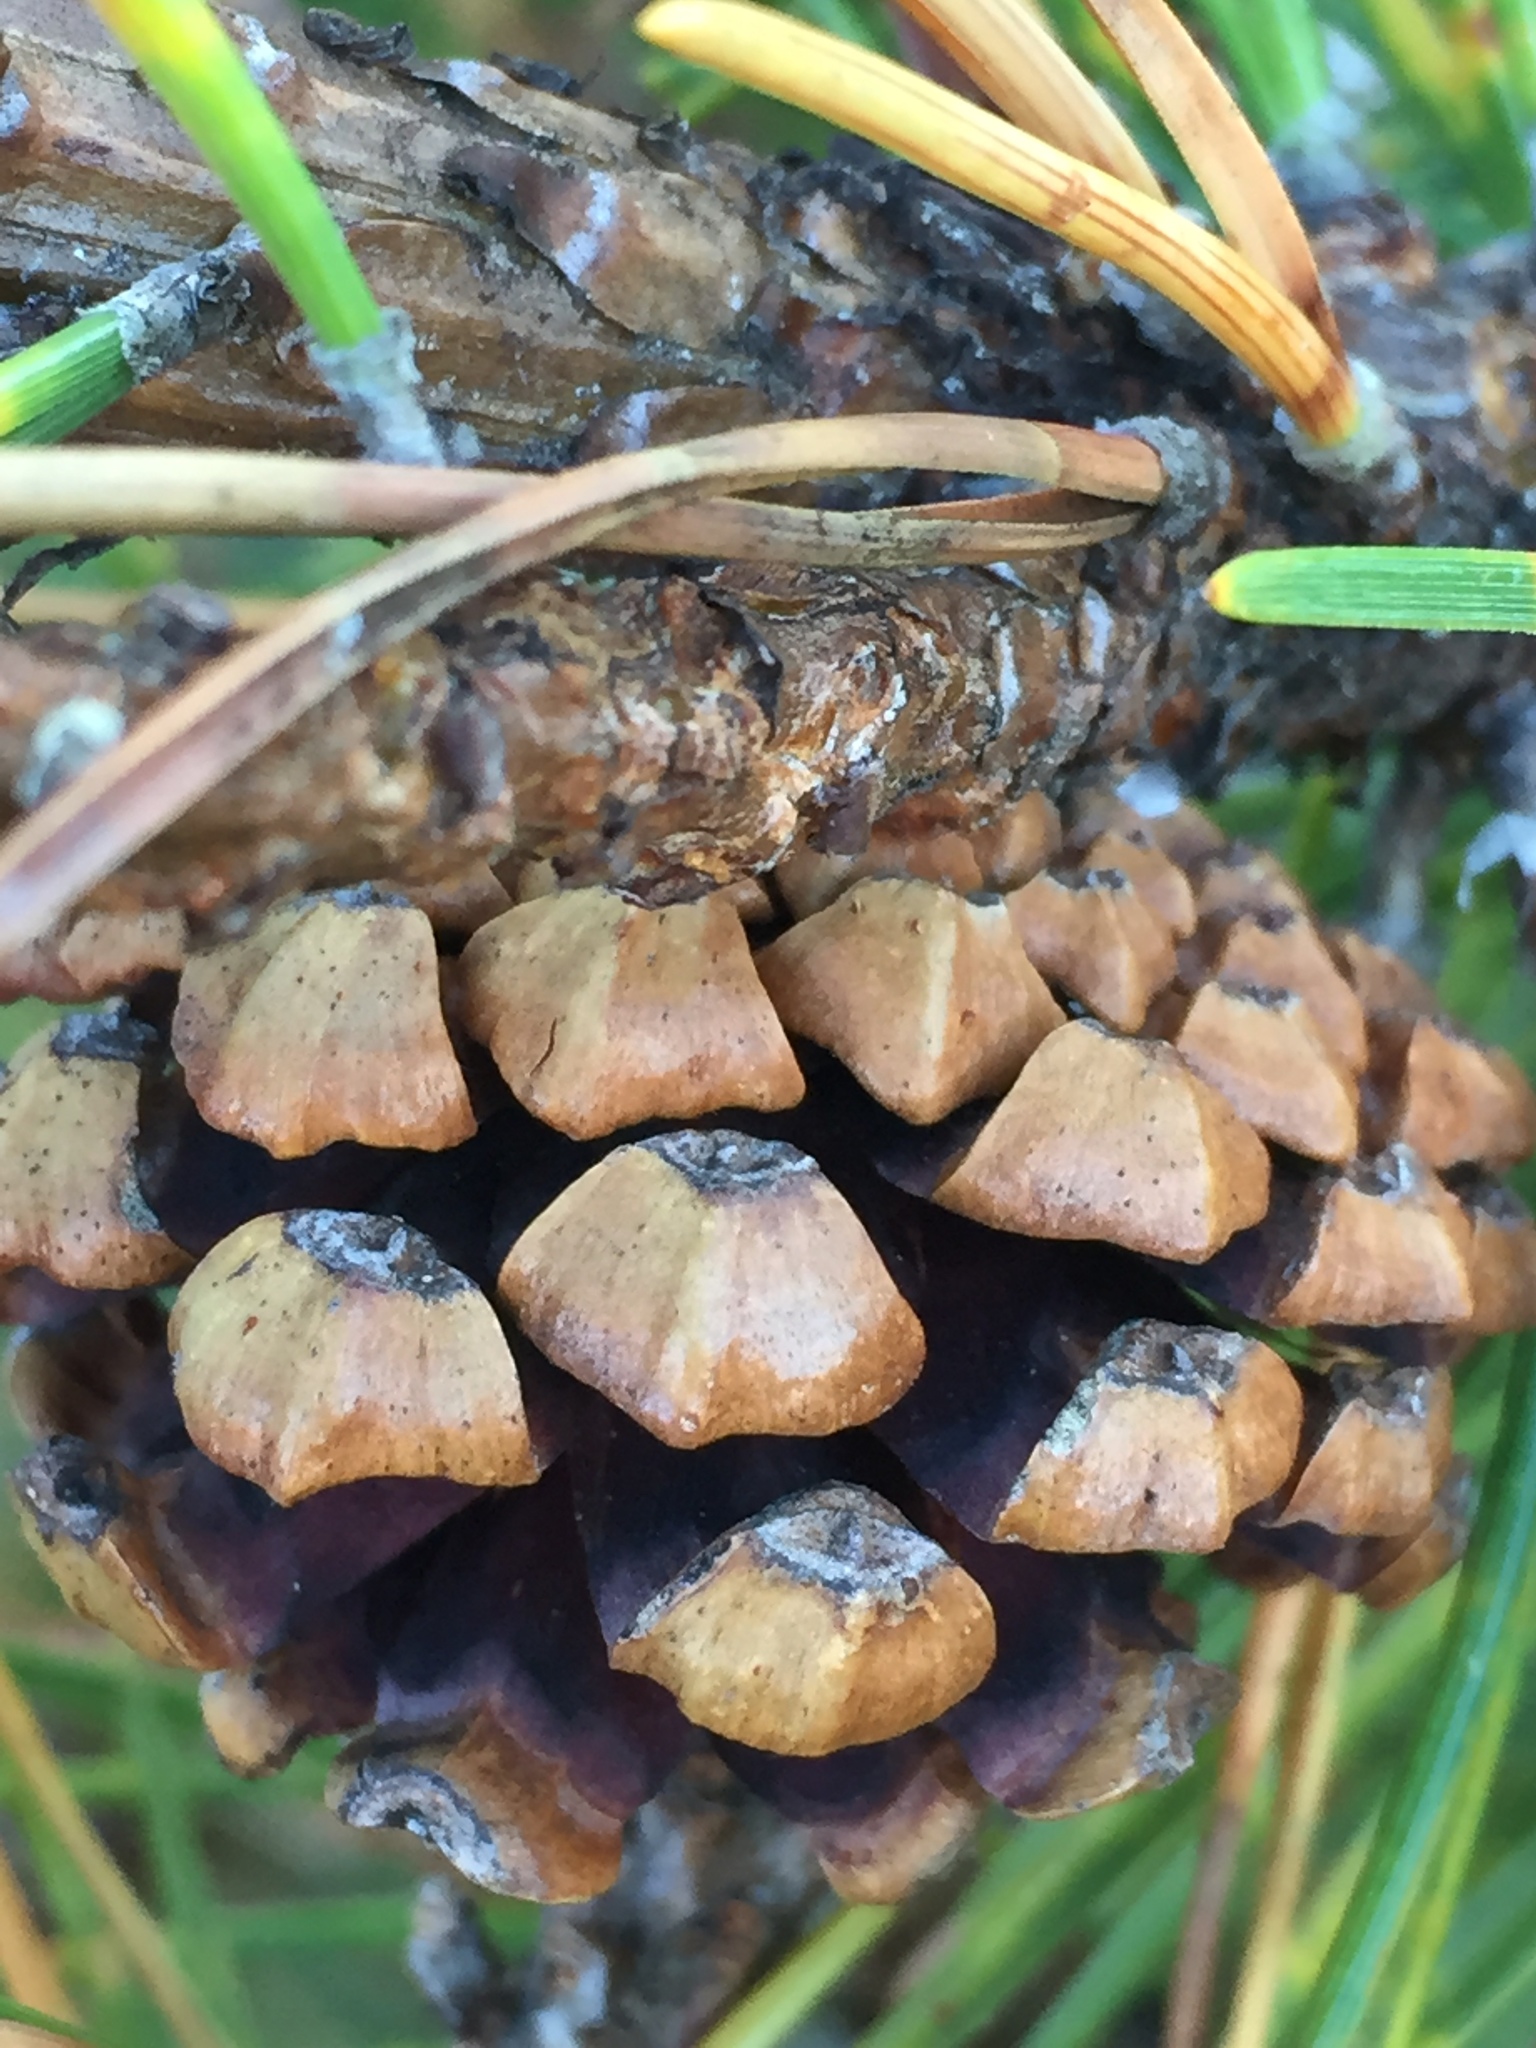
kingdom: Plantae
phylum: Tracheophyta
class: Pinopsida
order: Pinales
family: Pinaceae
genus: Pinus
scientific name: Pinus mugo
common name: Mugo pine
